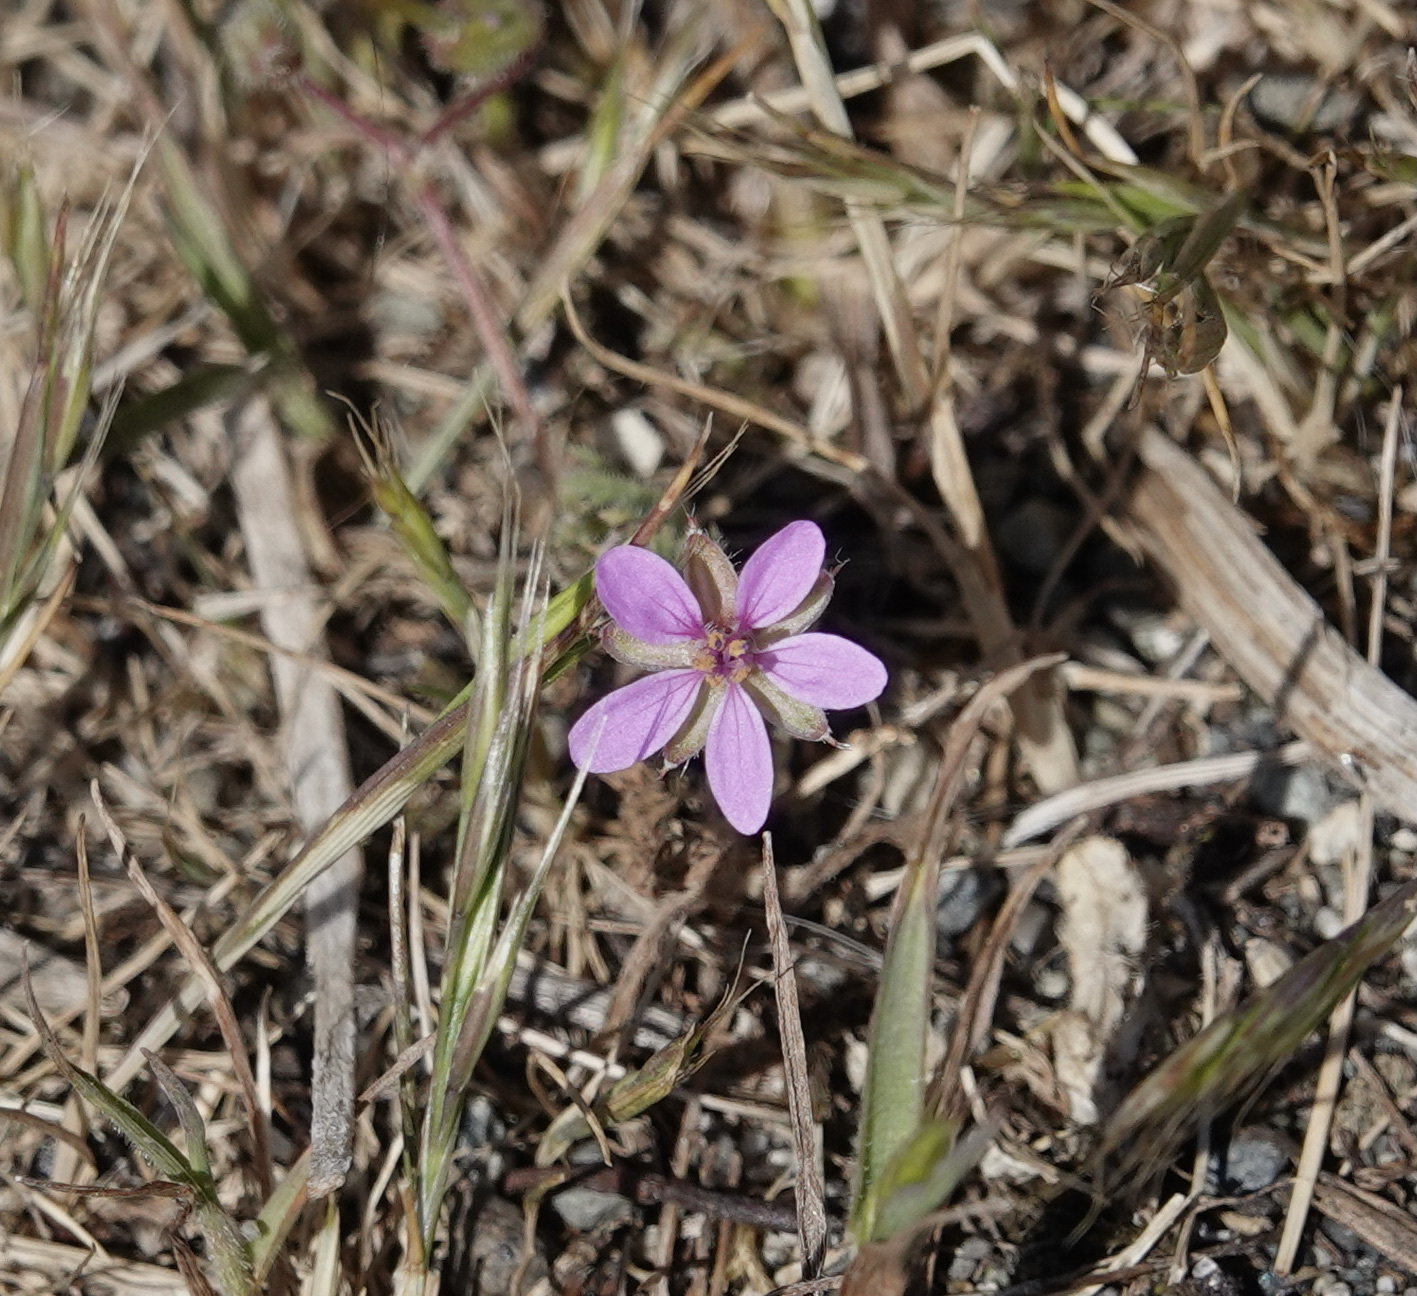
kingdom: Plantae
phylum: Tracheophyta
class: Magnoliopsida
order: Geraniales
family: Geraniaceae
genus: Erodium
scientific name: Erodium cicutarium
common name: Common stork's-bill
